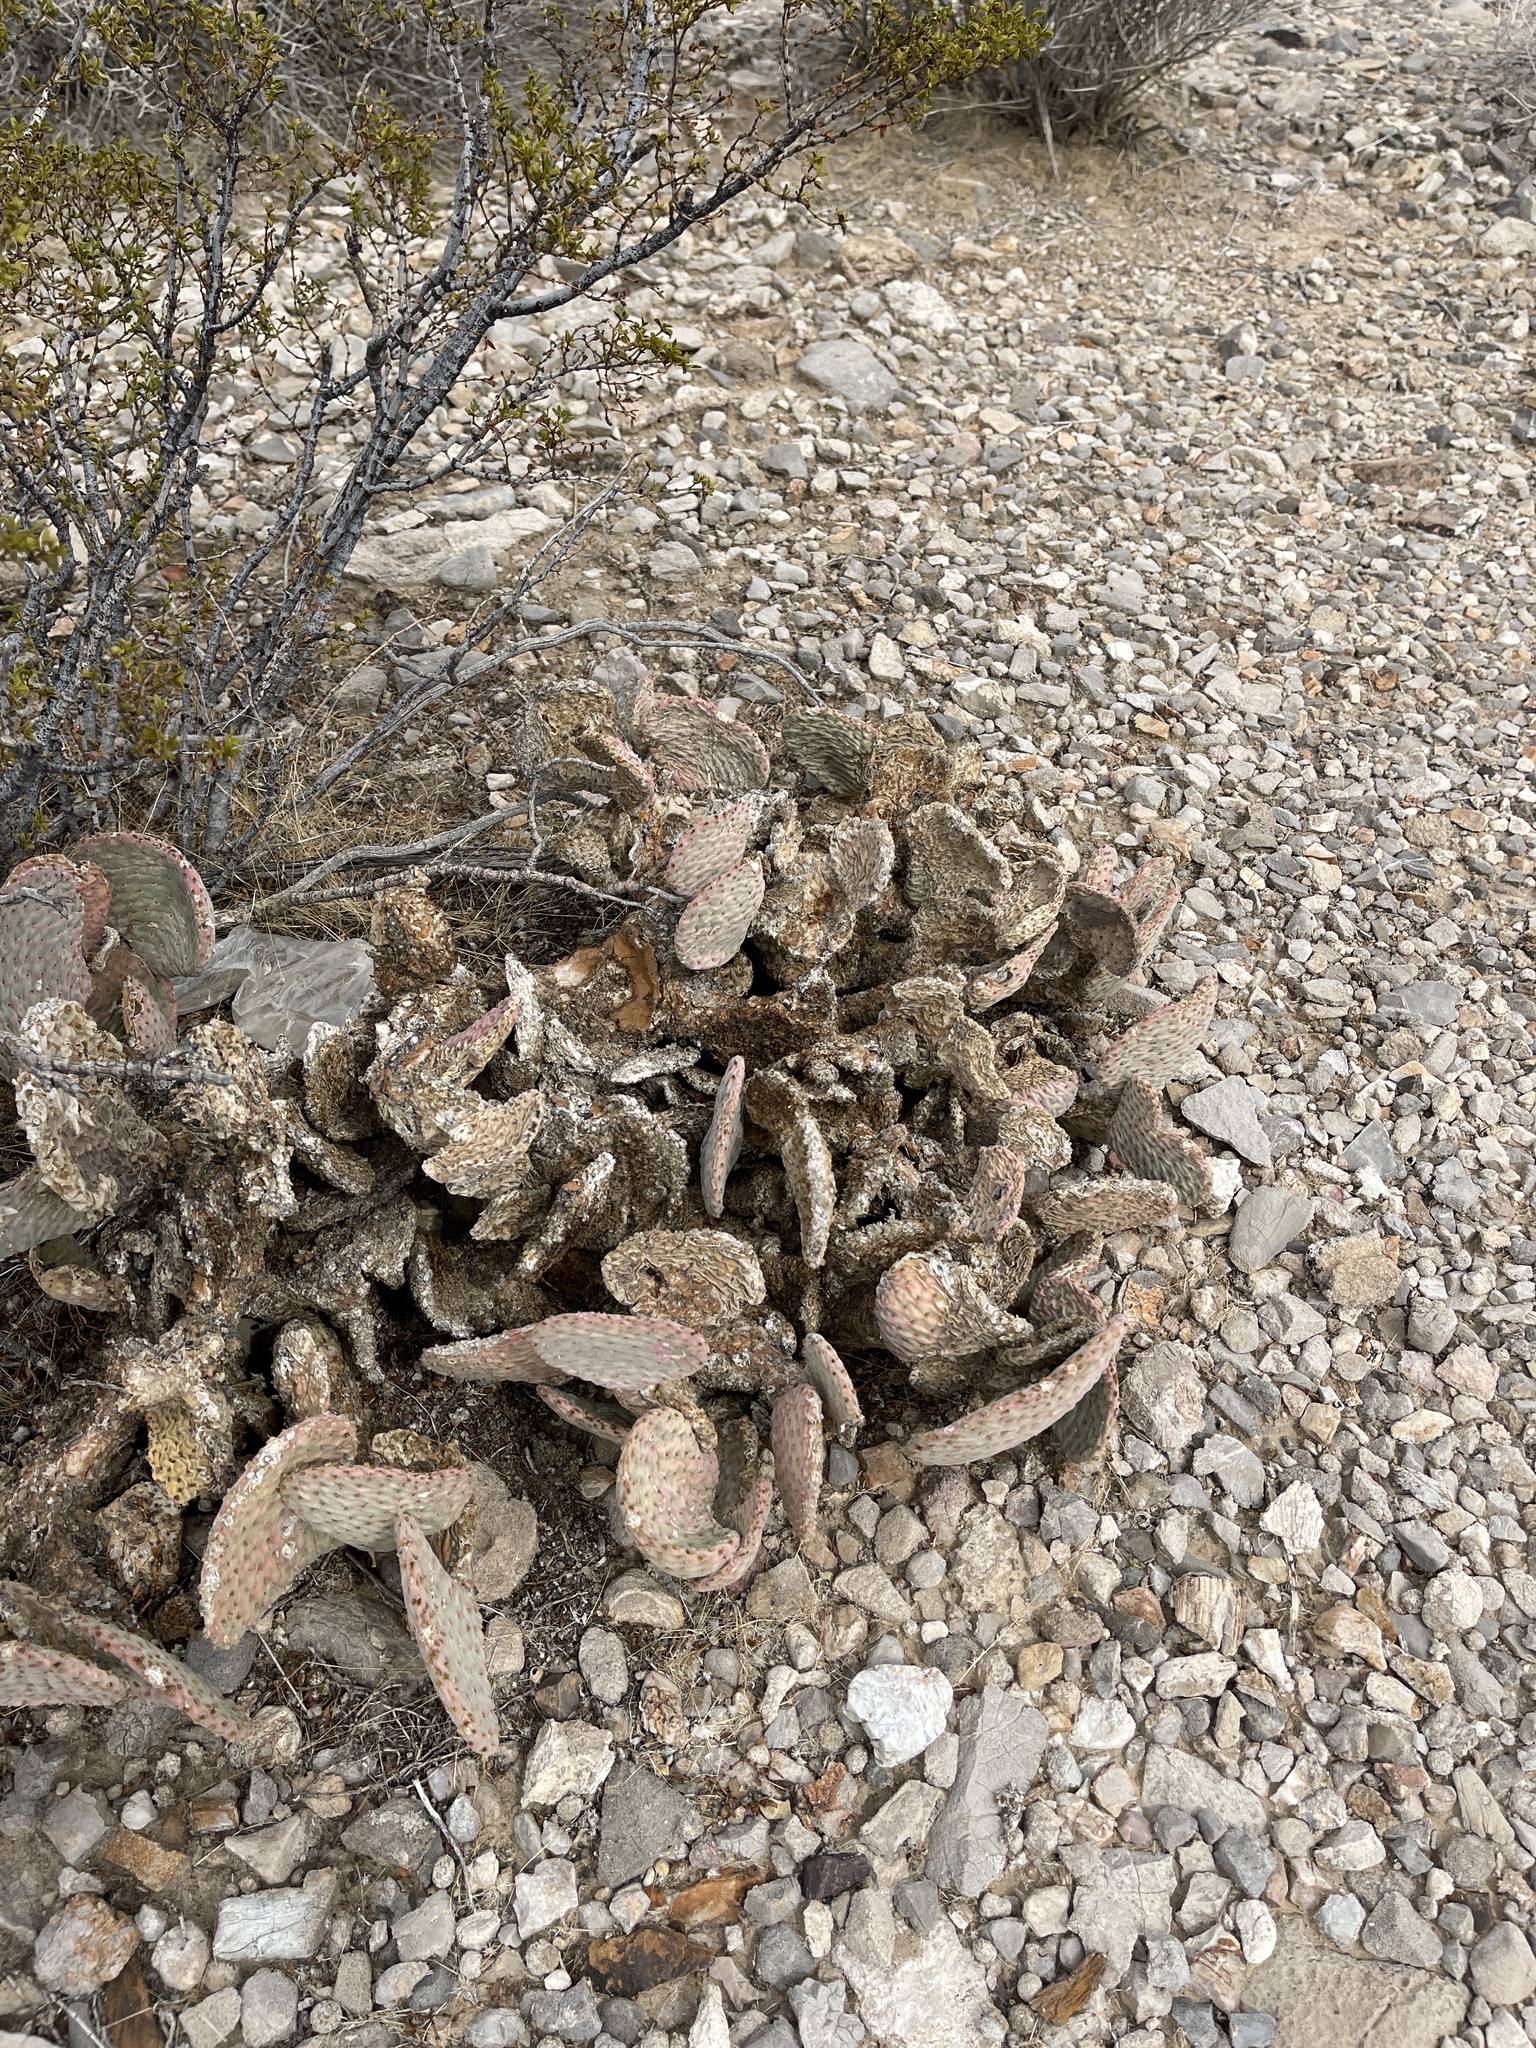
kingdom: Plantae
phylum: Tracheophyta
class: Magnoliopsida
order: Caryophyllales
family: Cactaceae
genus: Opuntia
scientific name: Opuntia basilaris
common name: Beavertail prickly-pear
